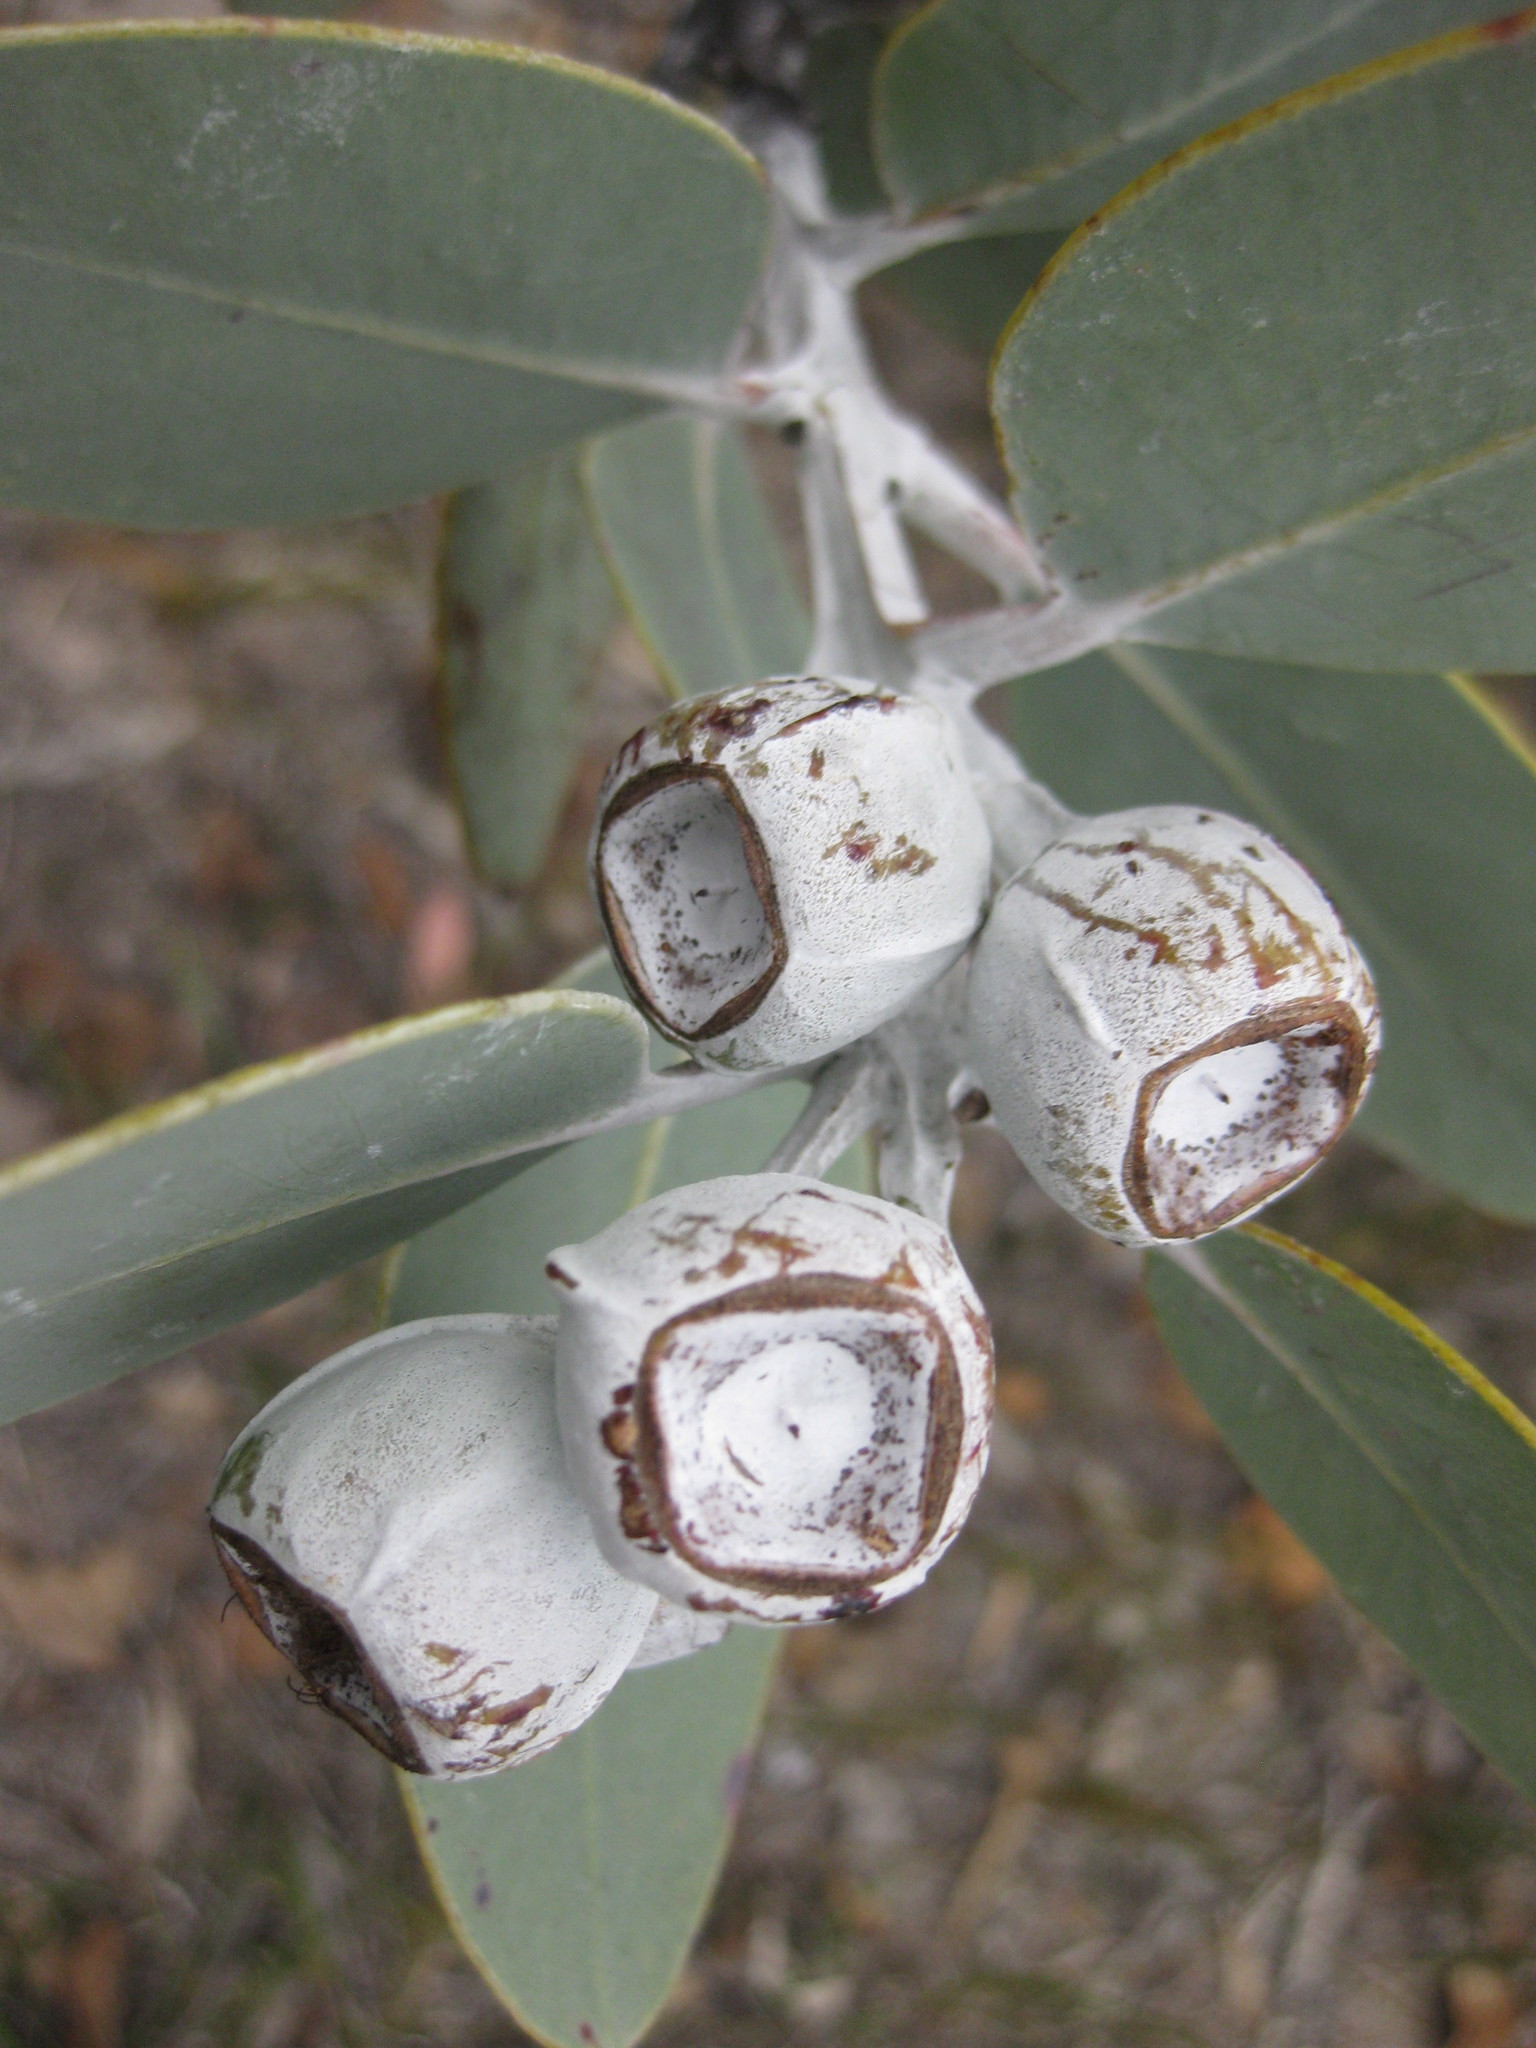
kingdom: Plantae
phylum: Tracheophyta
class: Magnoliopsida
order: Myrtales
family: Myrtaceae
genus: Eucalyptus
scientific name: Eucalyptus tetragona
